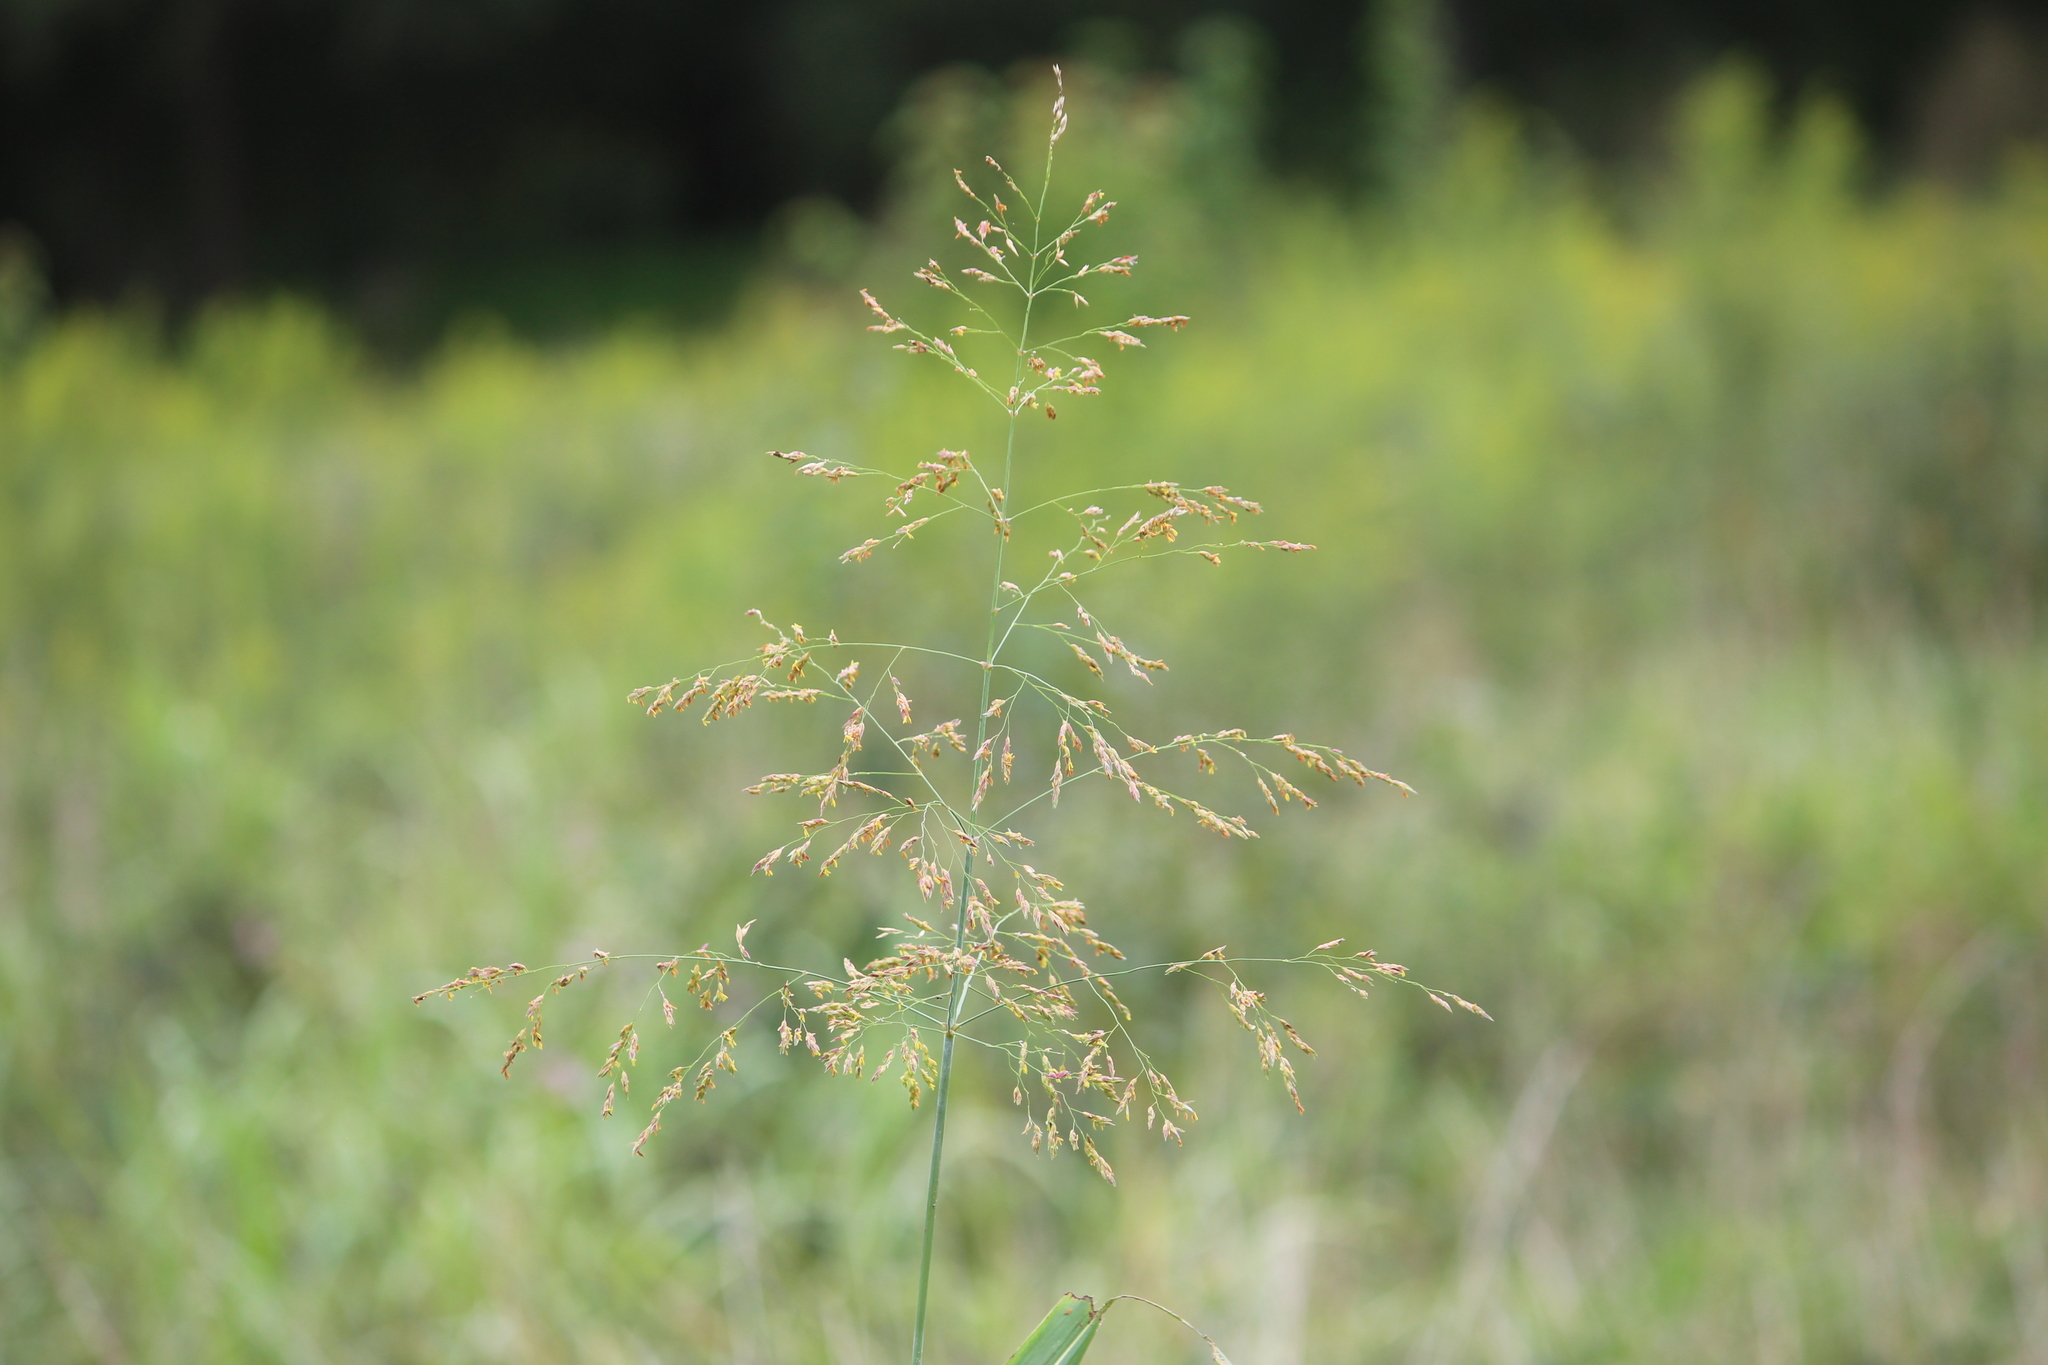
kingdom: Plantae
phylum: Tracheophyta
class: Liliopsida
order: Poales
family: Poaceae
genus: Sorghum
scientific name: Sorghum halepense
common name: Johnson-grass
